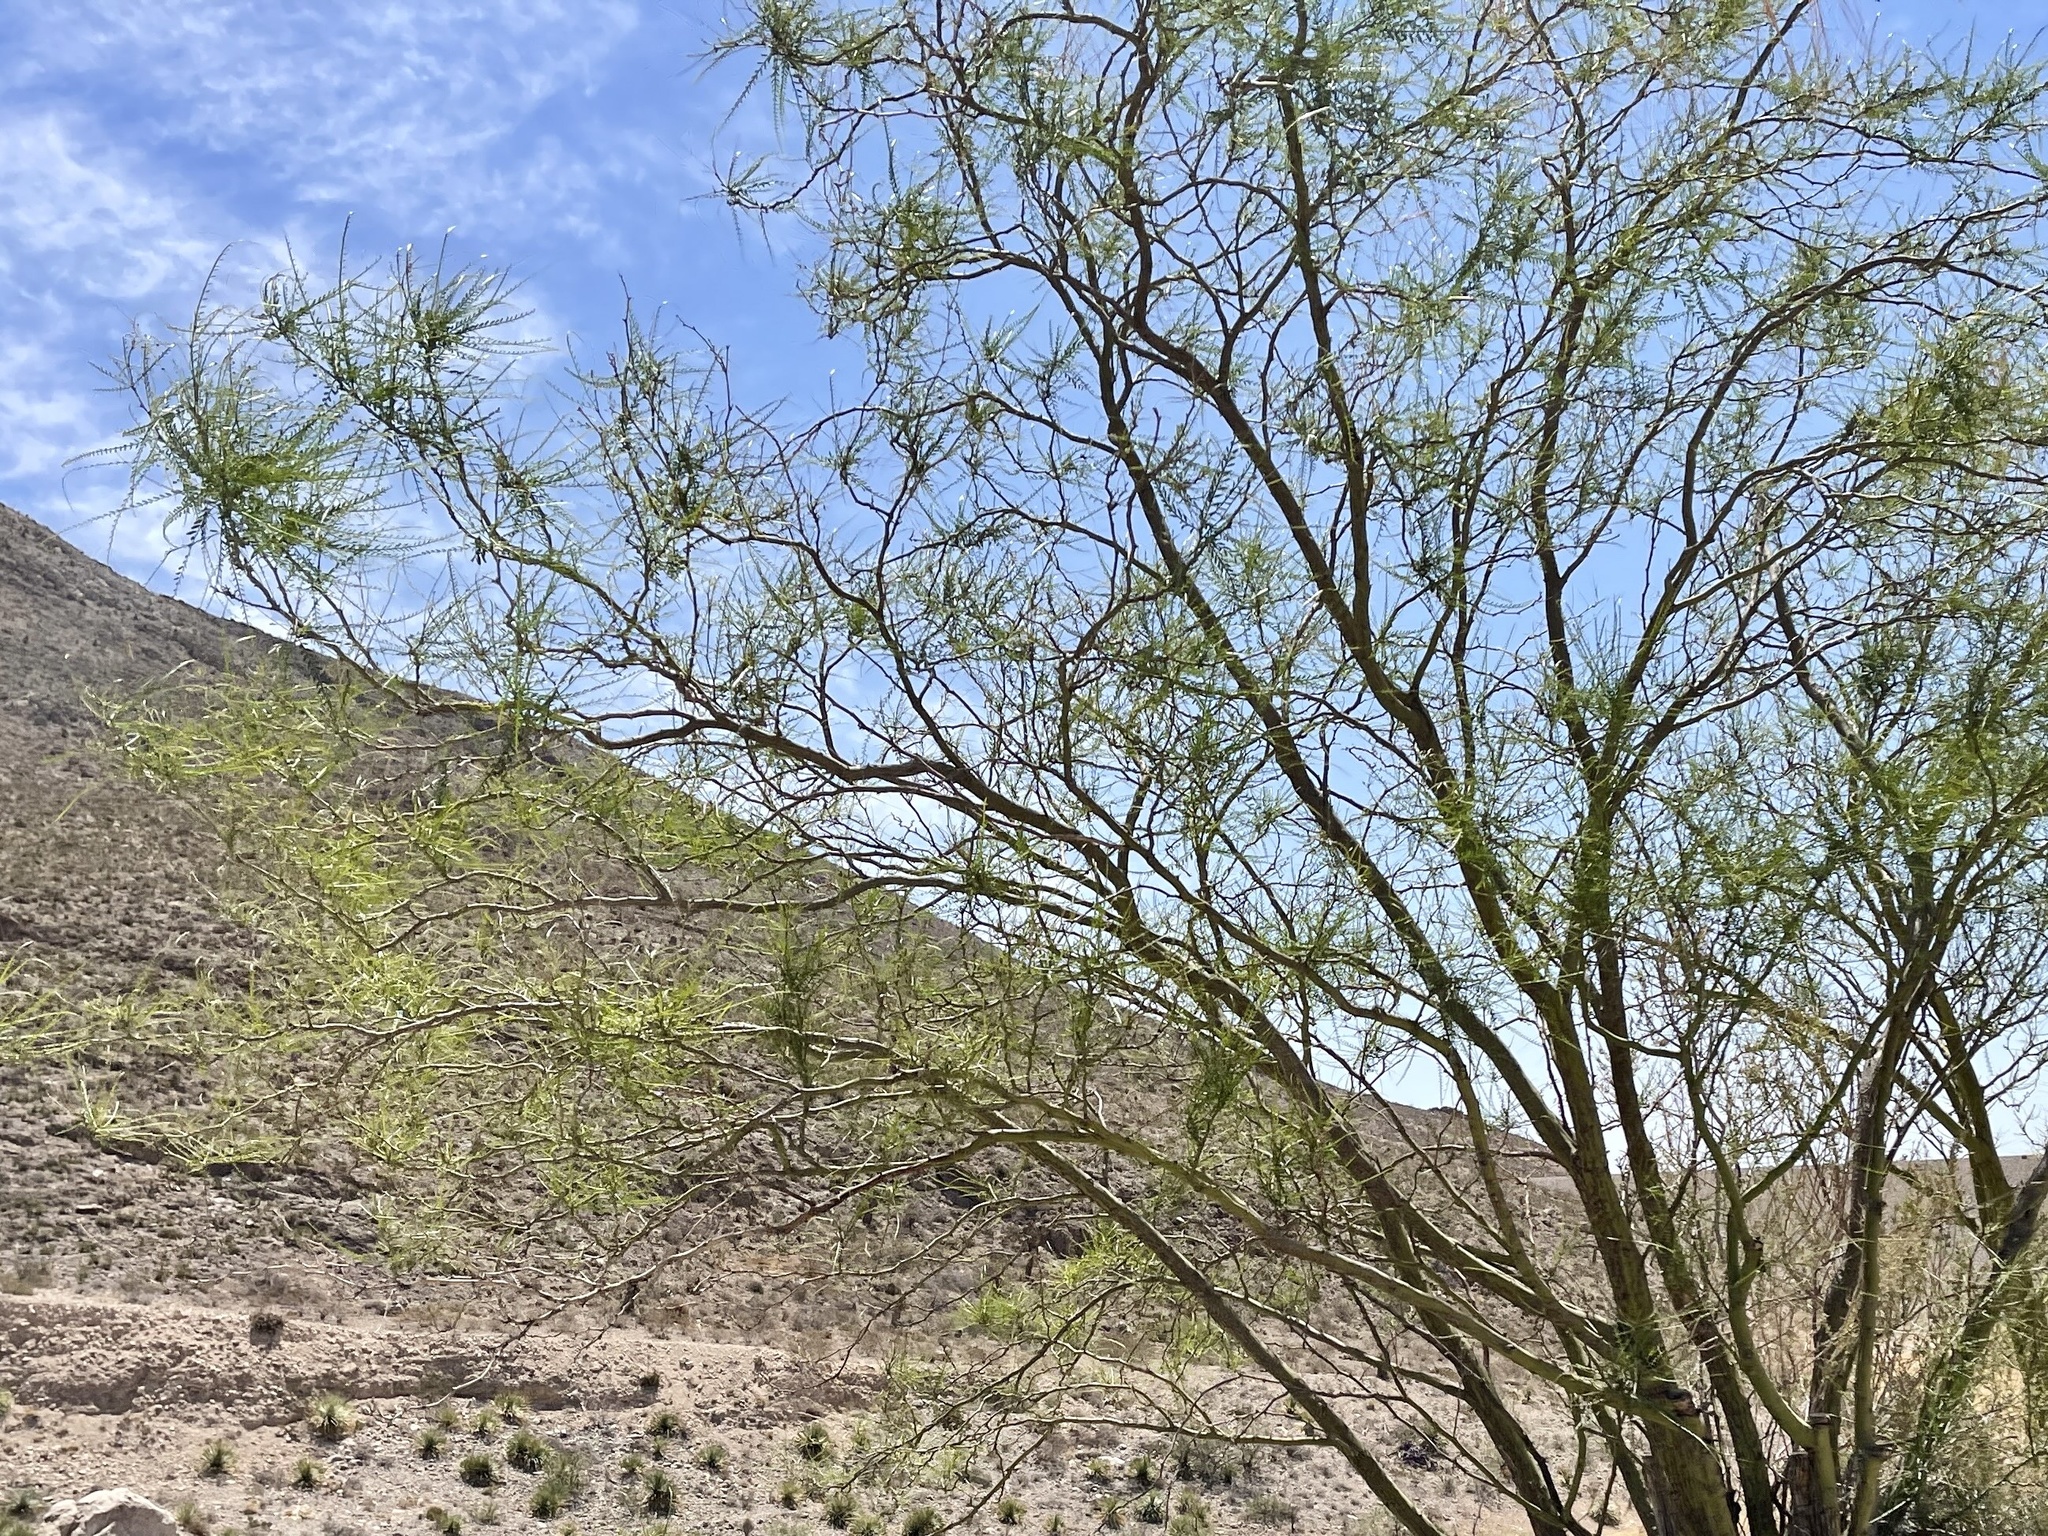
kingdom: Plantae
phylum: Tracheophyta
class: Magnoliopsida
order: Fabales
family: Fabaceae
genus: Parkinsonia
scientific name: Parkinsonia aculeata
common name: Jerusalem thorn
